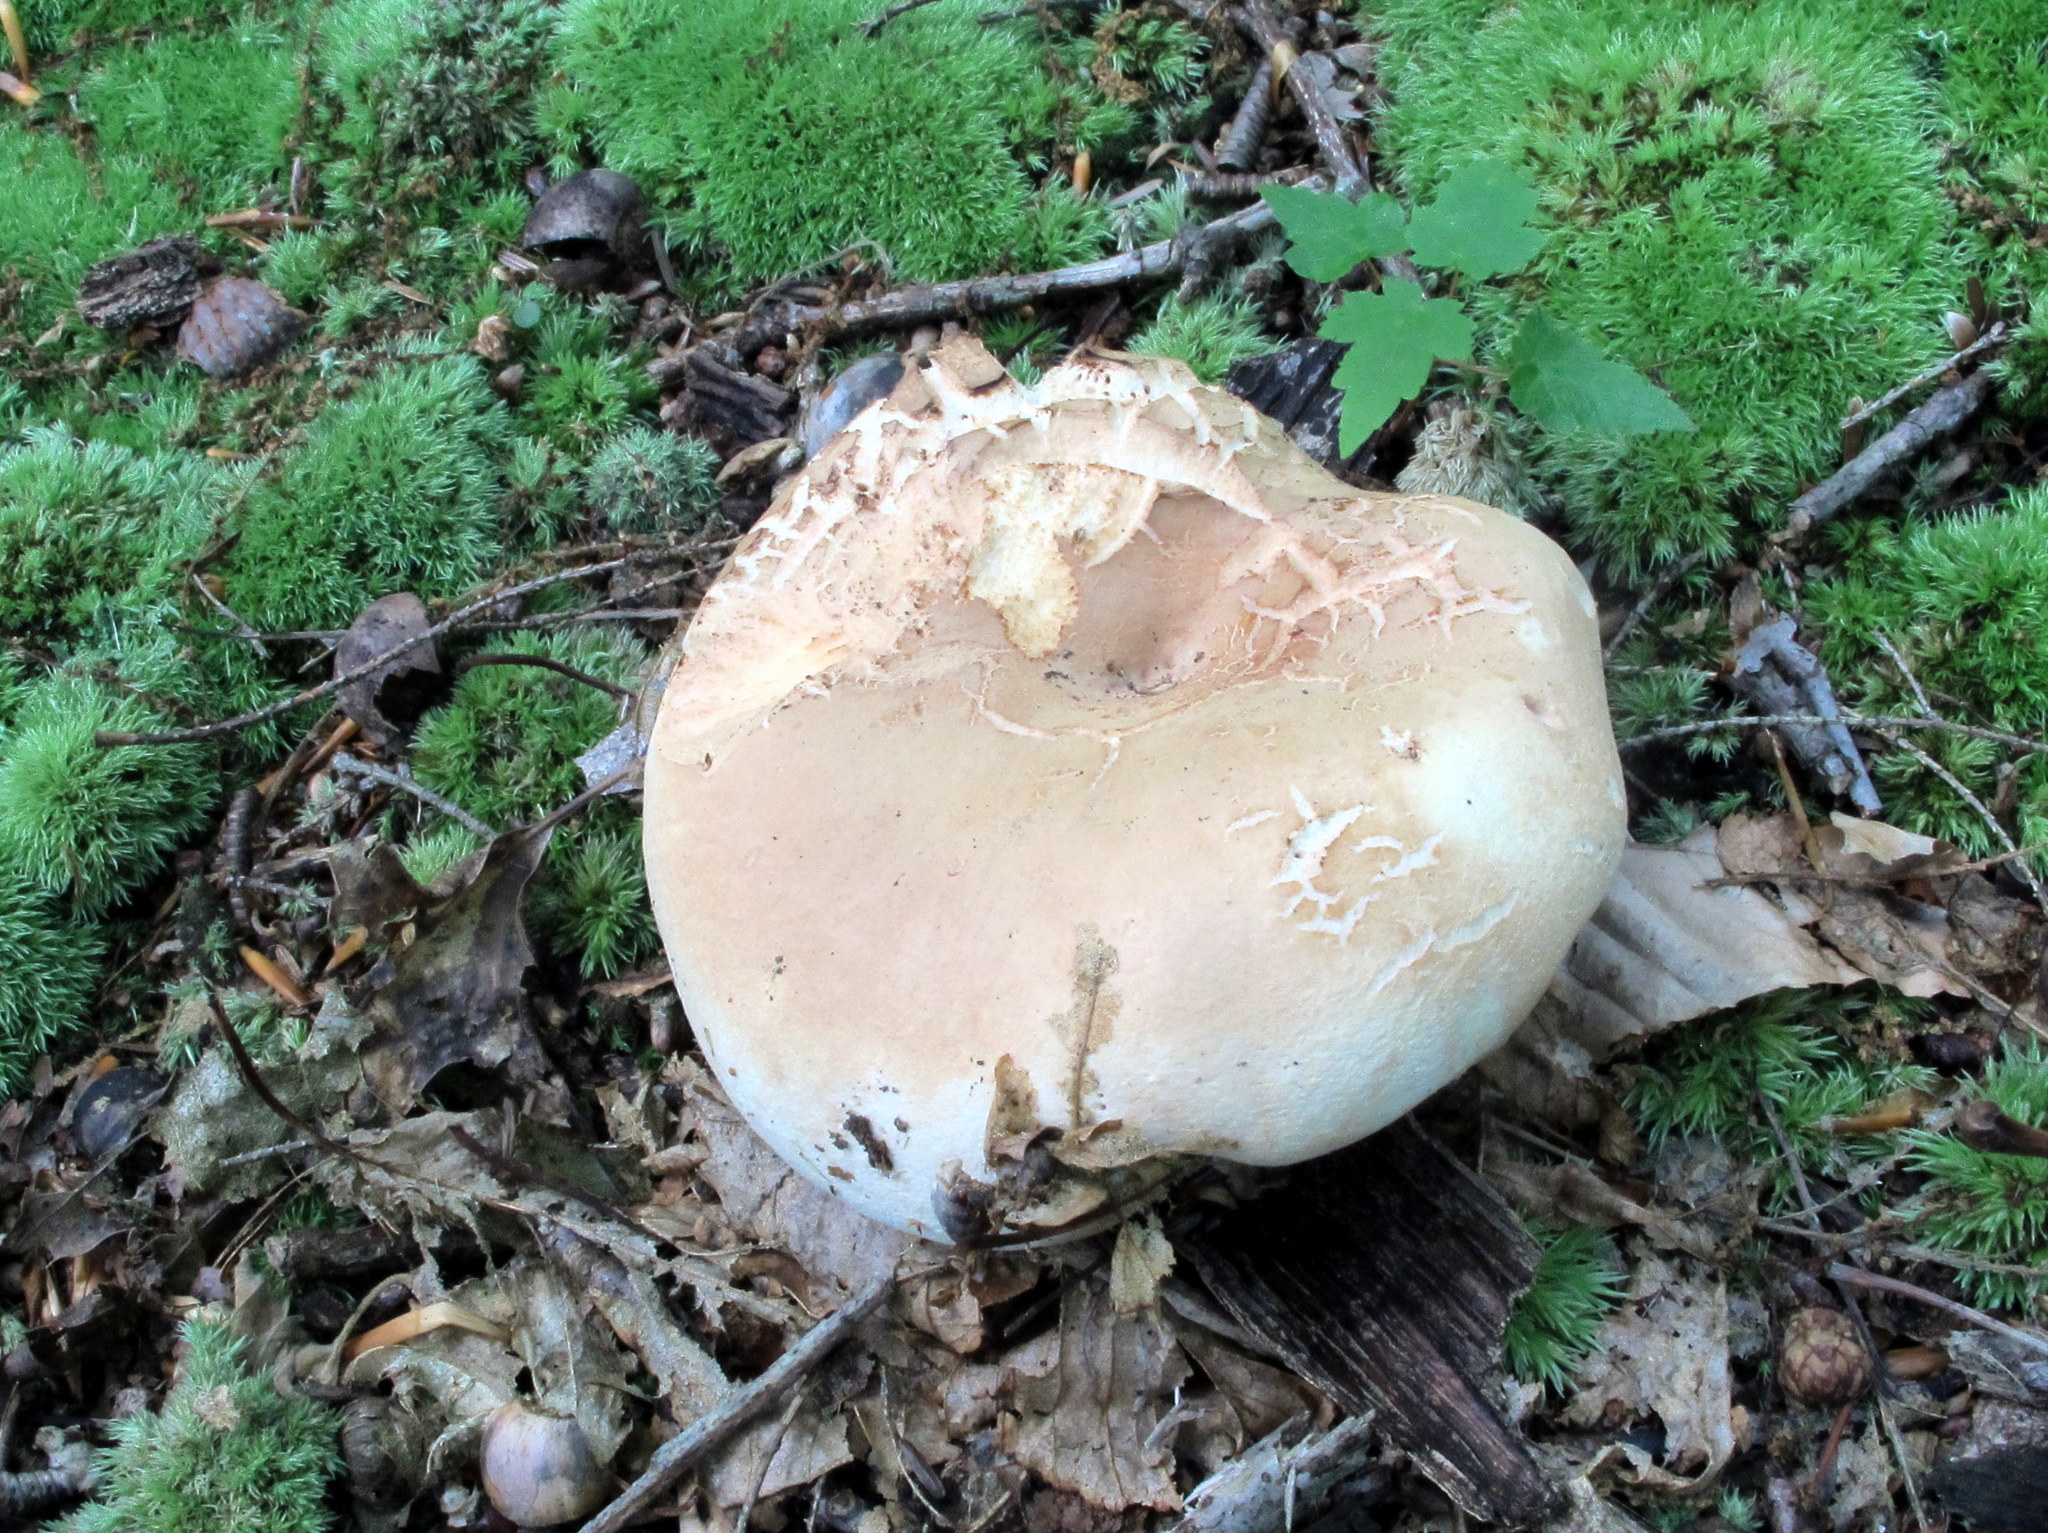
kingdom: Fungi
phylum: Basidiomycota
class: Agaricomycetes
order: Russulales
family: Russulaceae
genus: Russula
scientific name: Russula compacta
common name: Fishbiscuit russula
